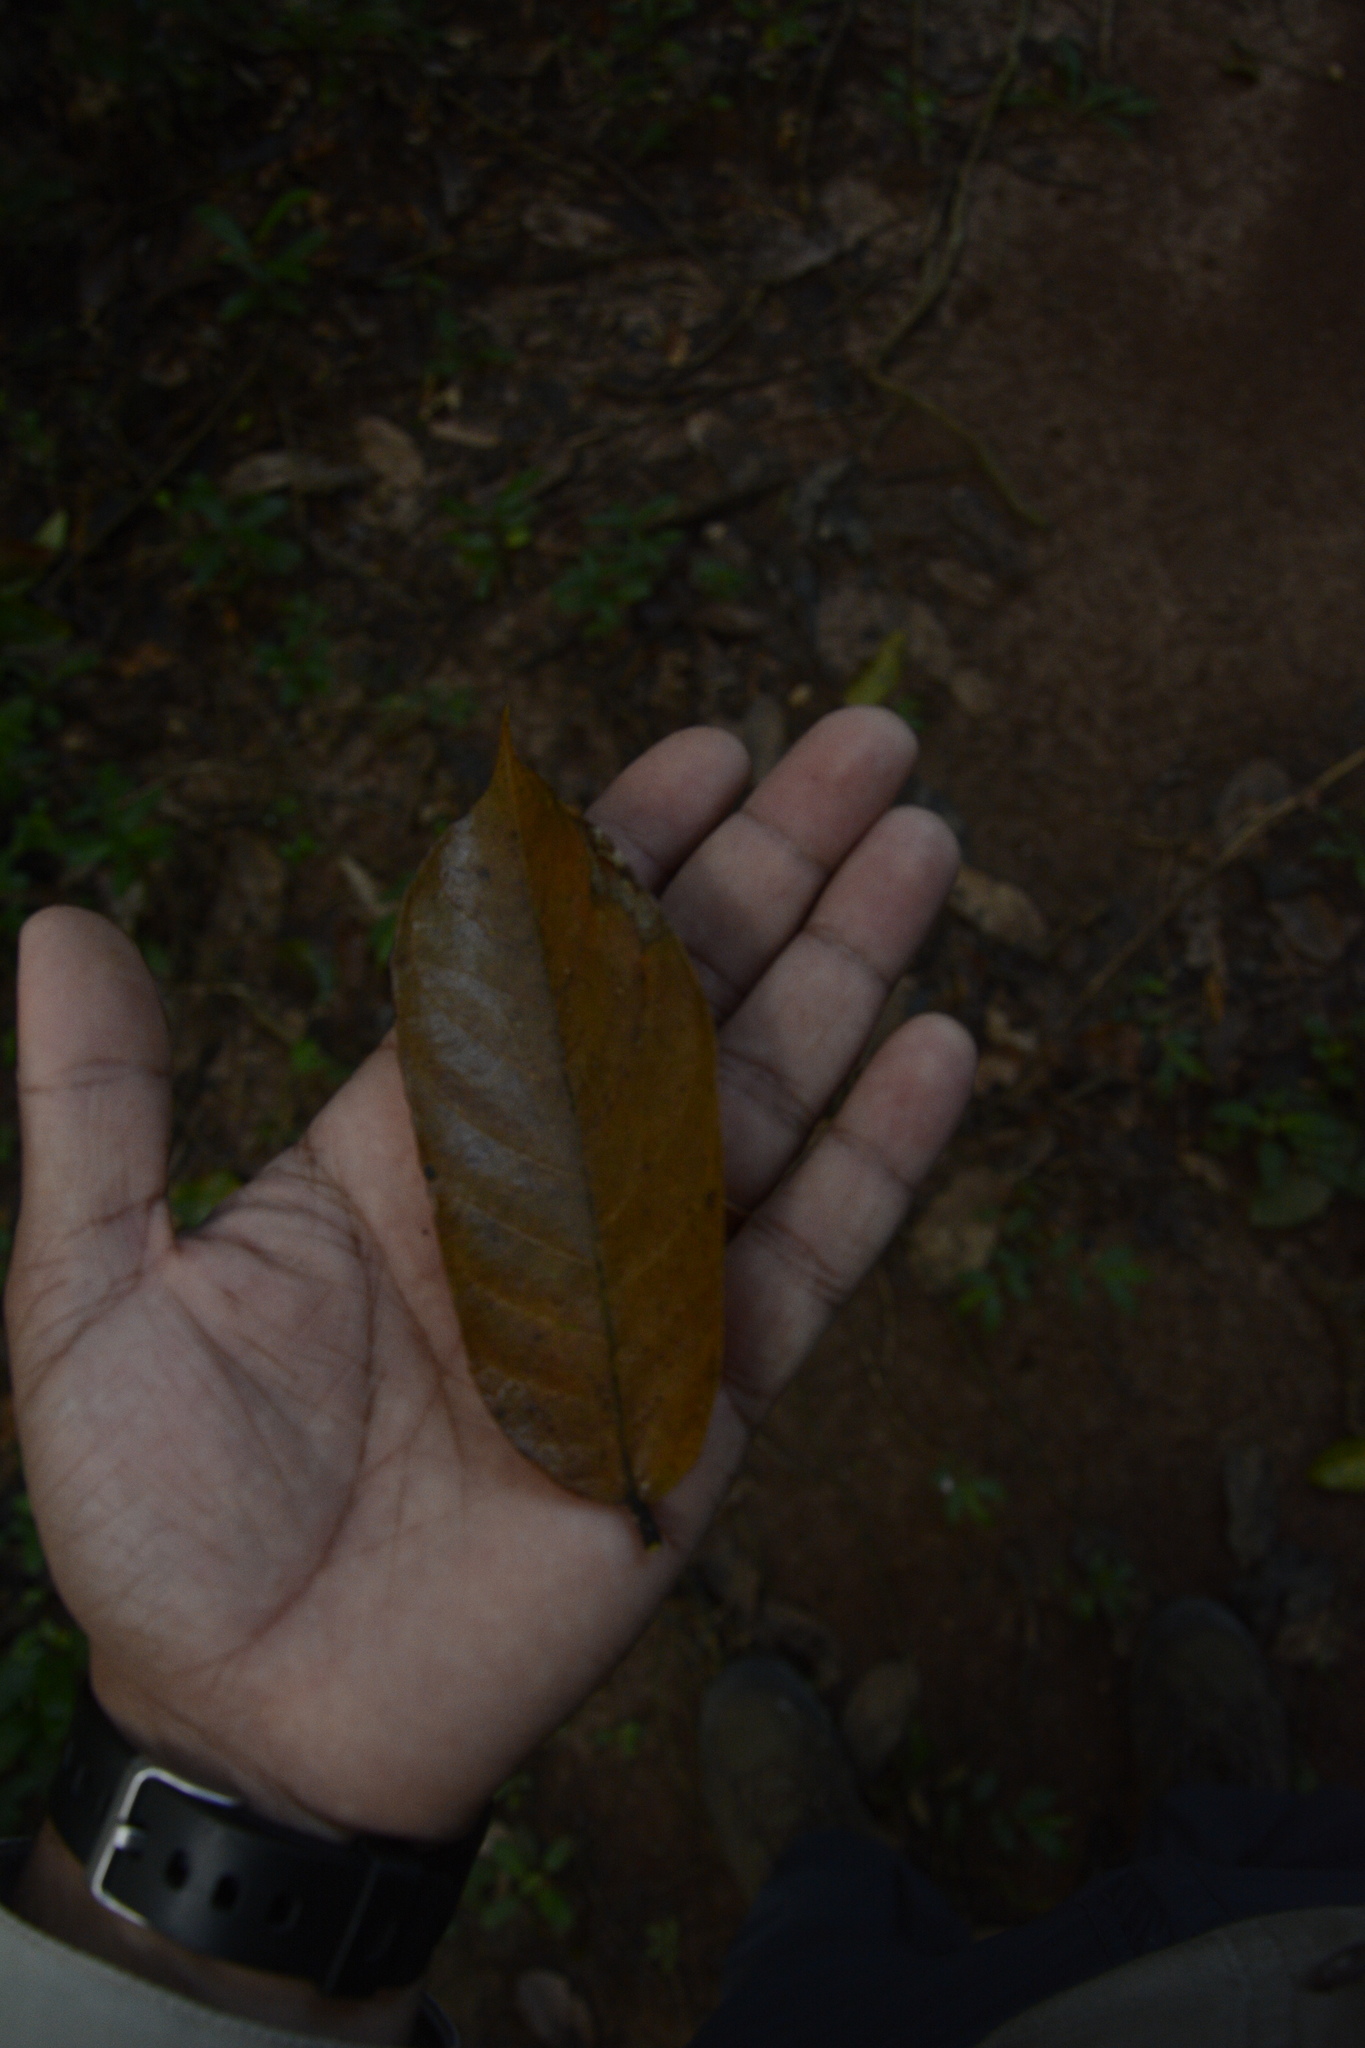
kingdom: Plantae
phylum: Tracheophyta
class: Magnoliopsida
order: Rosales
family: Moraceae
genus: Antiaris
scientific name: Antiaris toxicaria
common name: Sackingtree
